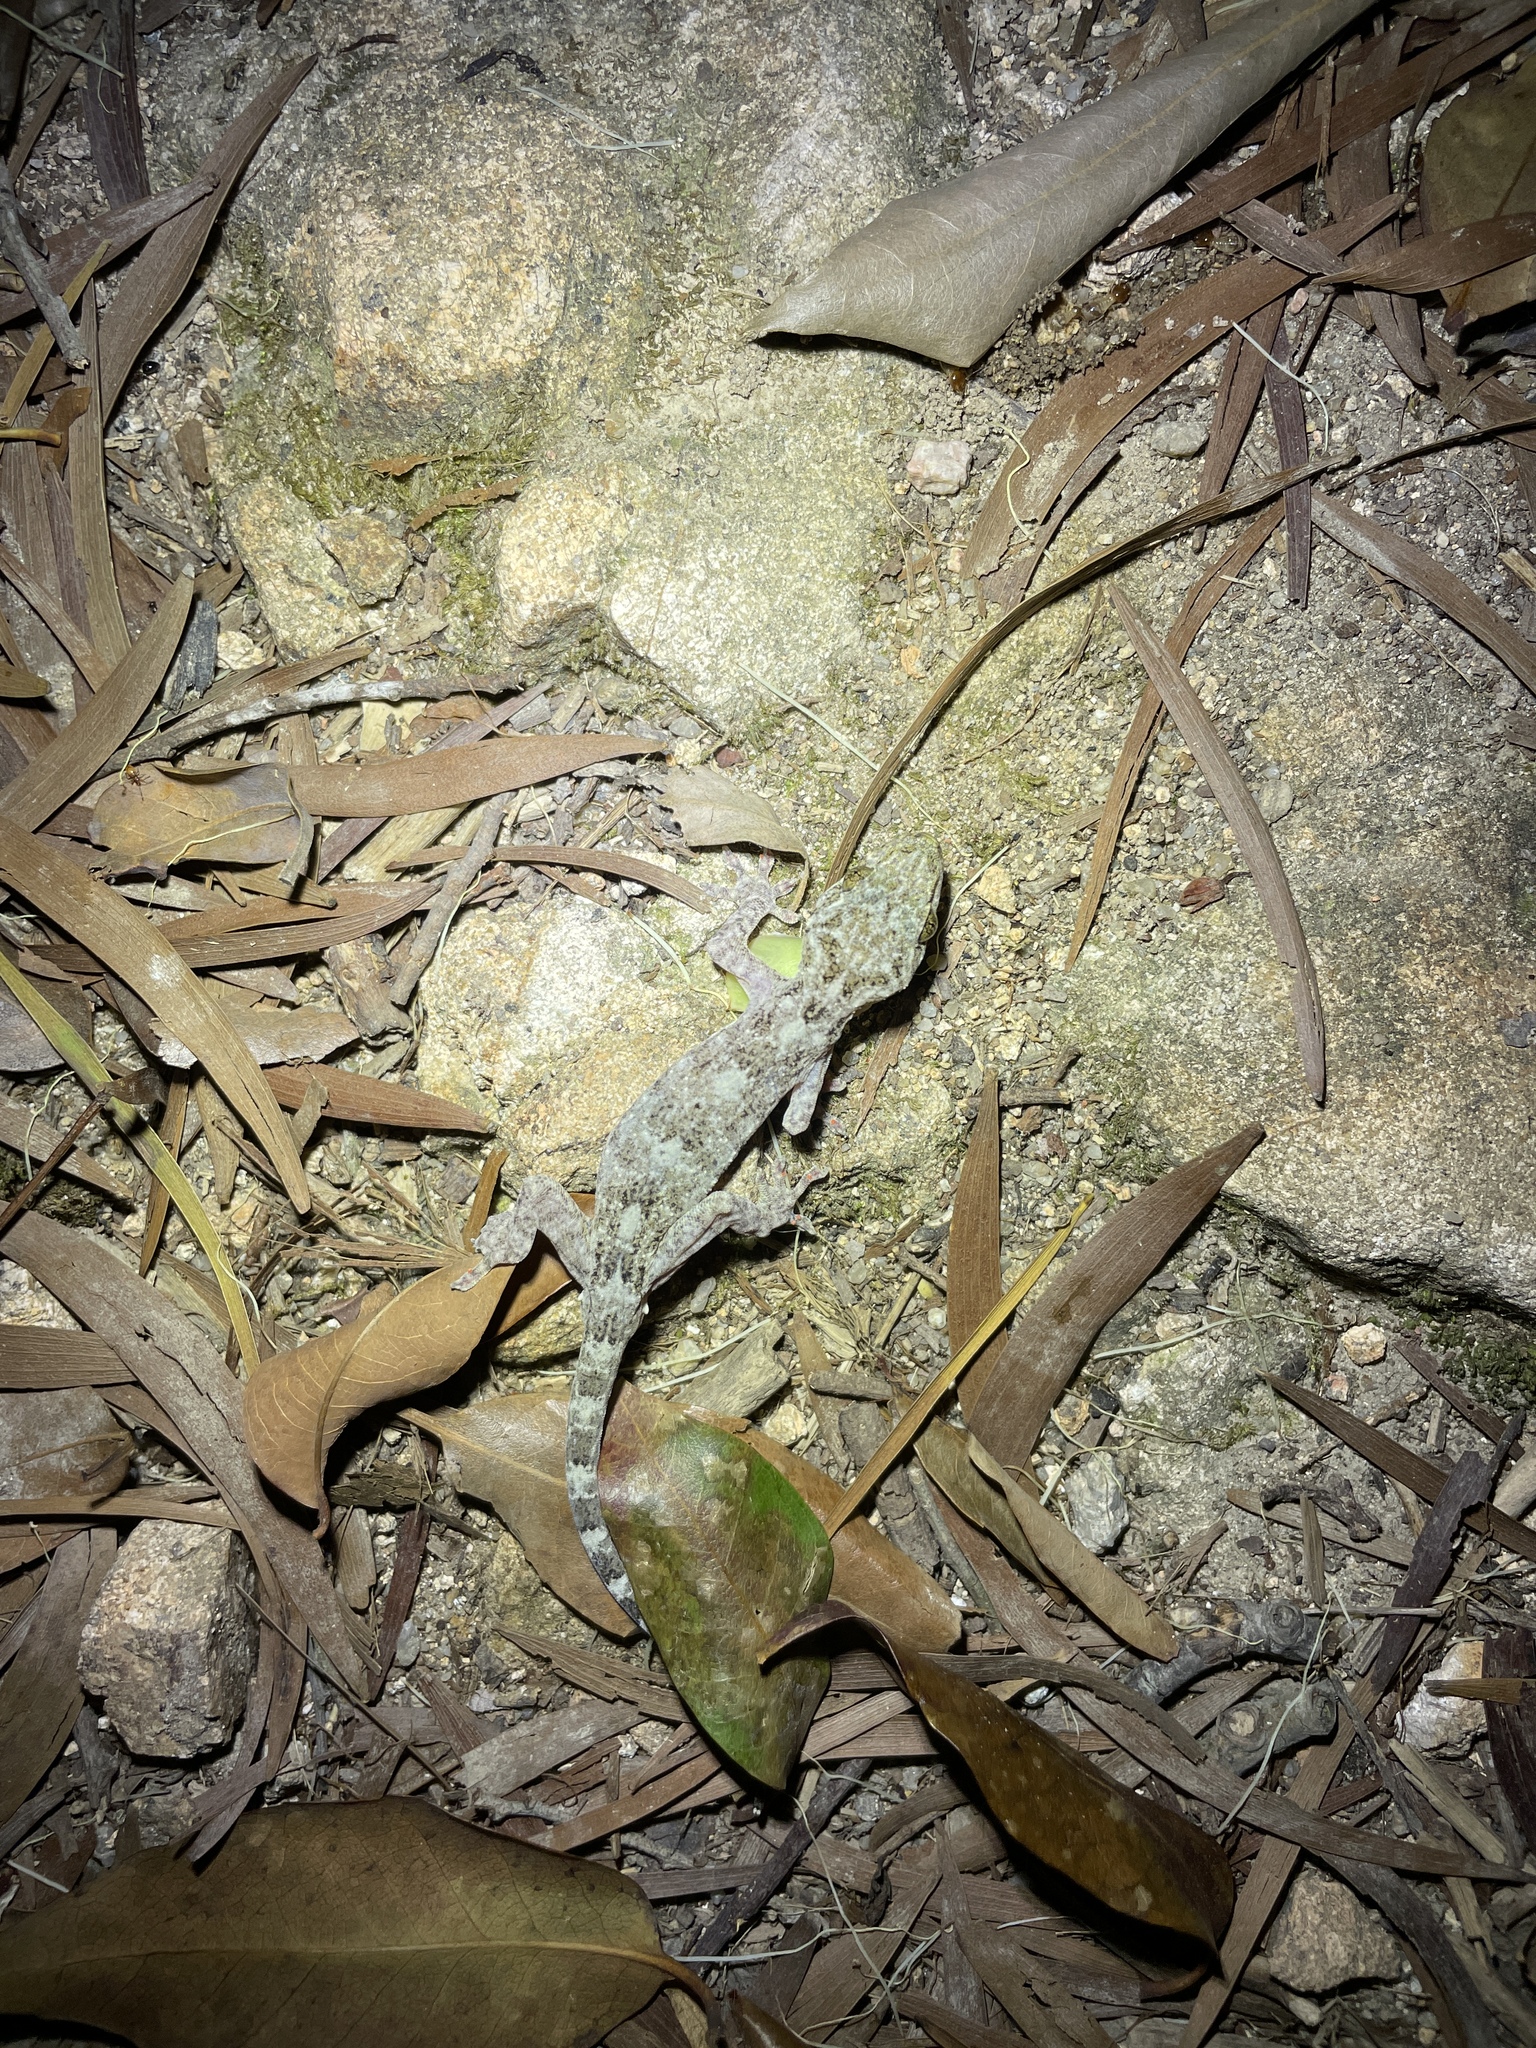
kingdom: Animalia
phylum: Chordata
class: Squamata
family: Gekkonidae
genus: Gekko
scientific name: Gekko chinensis
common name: Gray's chinese gecko
